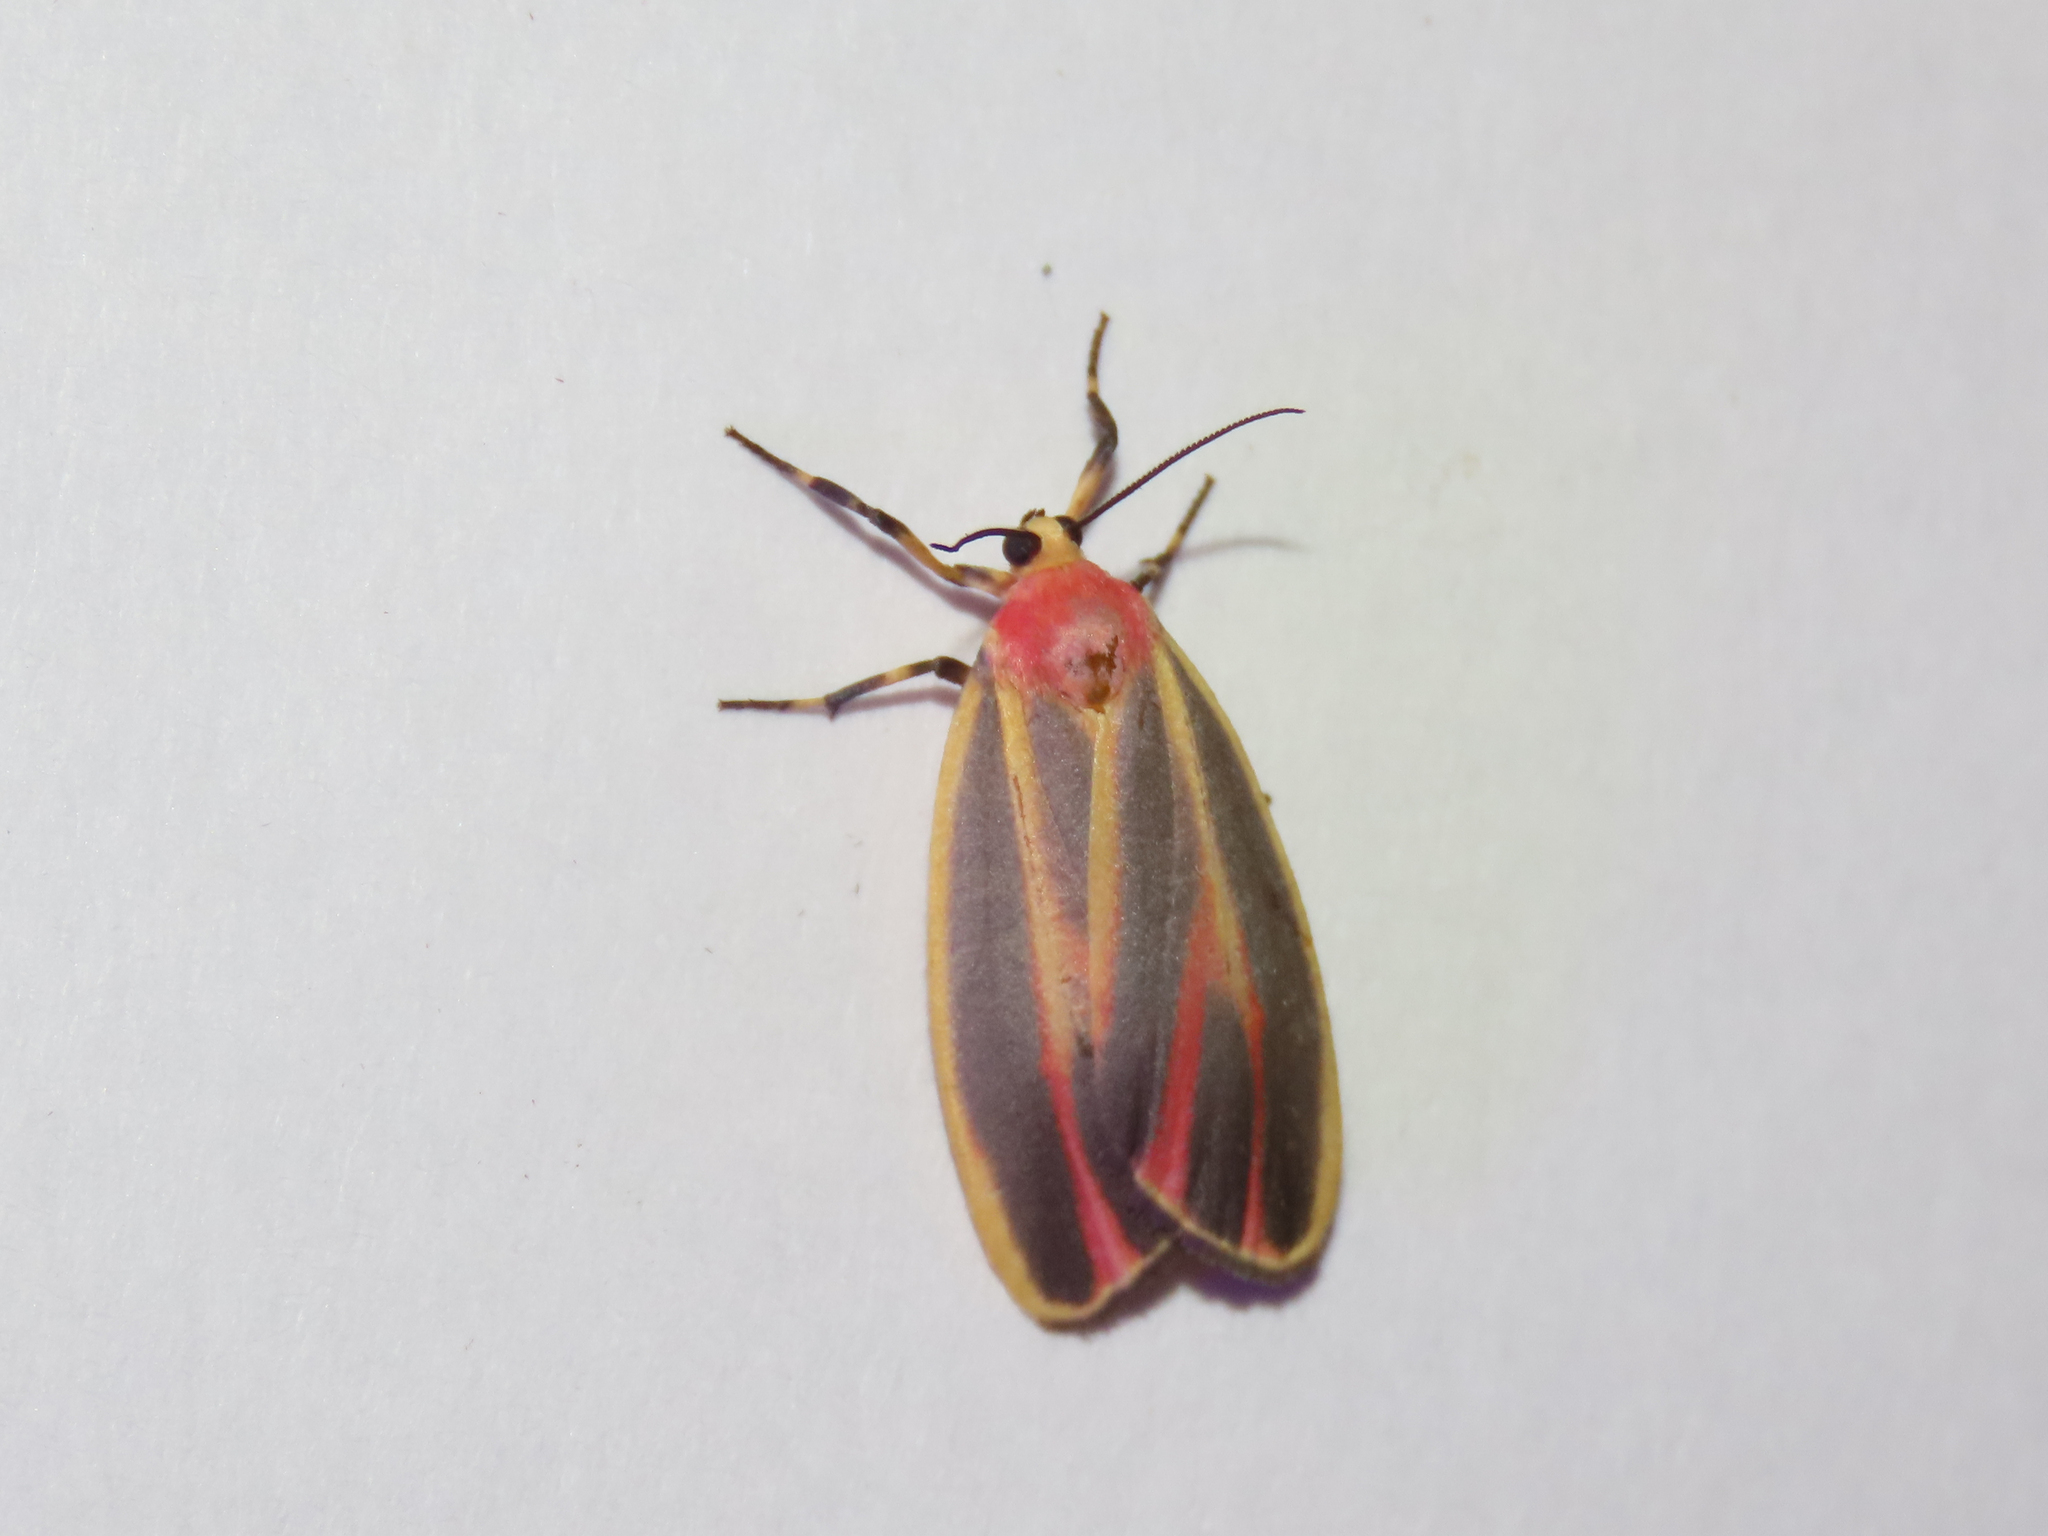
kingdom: Animalia
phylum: Arthropoda
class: Insecta
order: Lepidoptera
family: Erebidae
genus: Hypoprepia
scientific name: Hypoprepia fucosa
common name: Painted lichen moth
